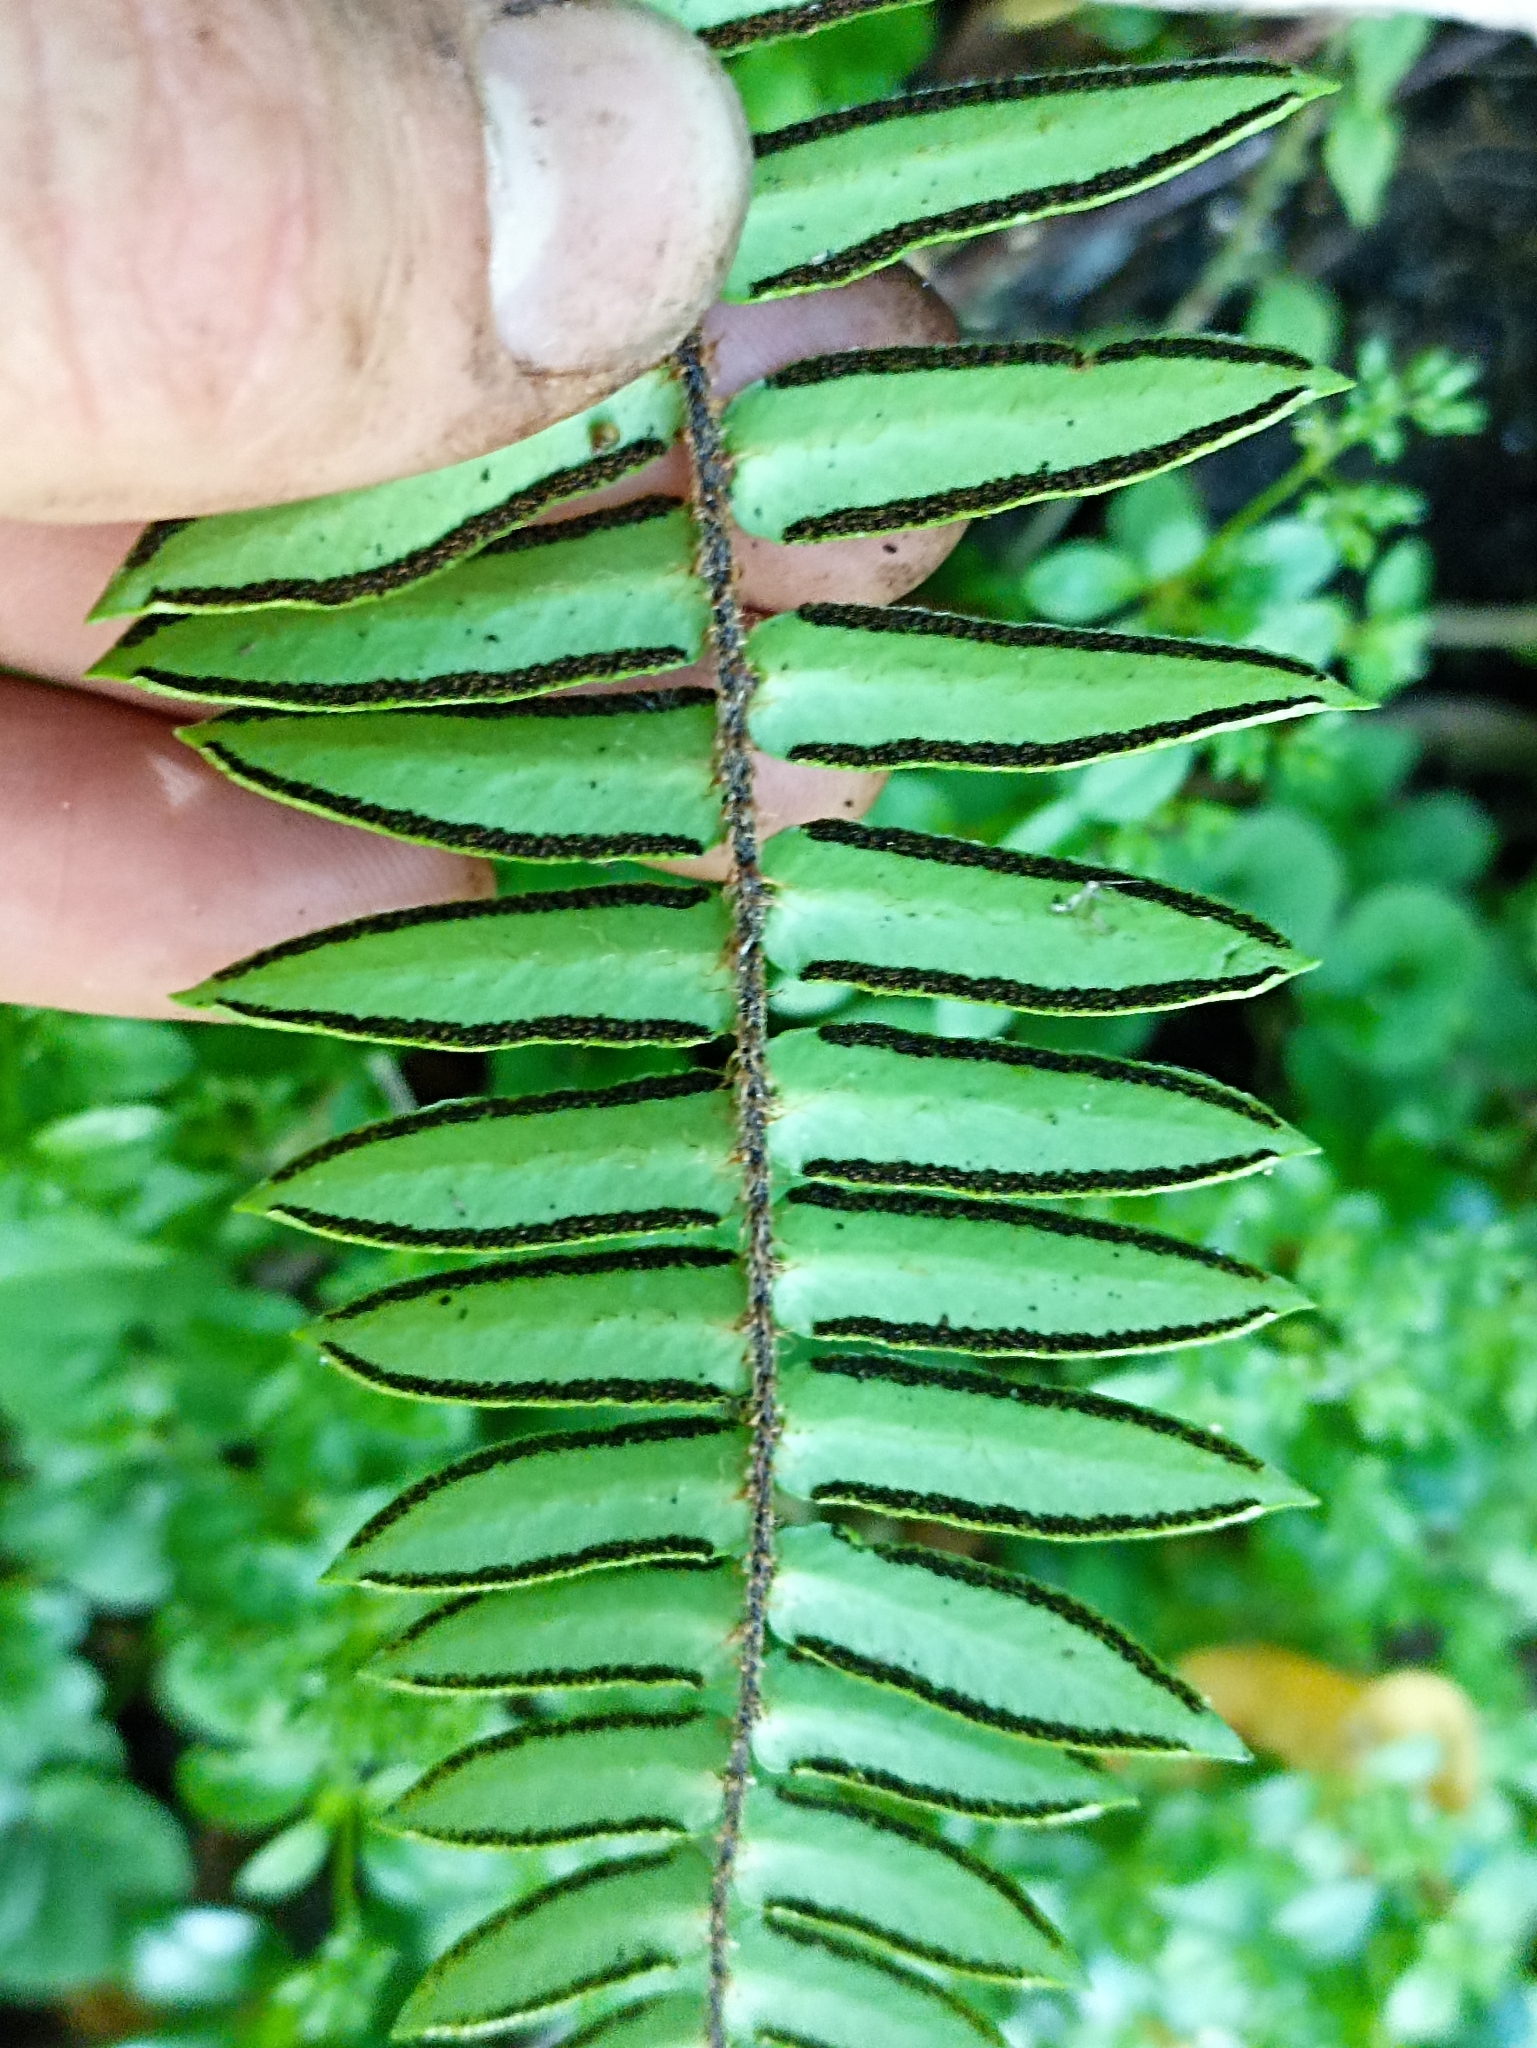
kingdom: Plantae
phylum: Tracheophyta
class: Polypodiopsida
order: Polypodiales
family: Pteridaceae
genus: Pellaea
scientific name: Pellaea rotundifolia
